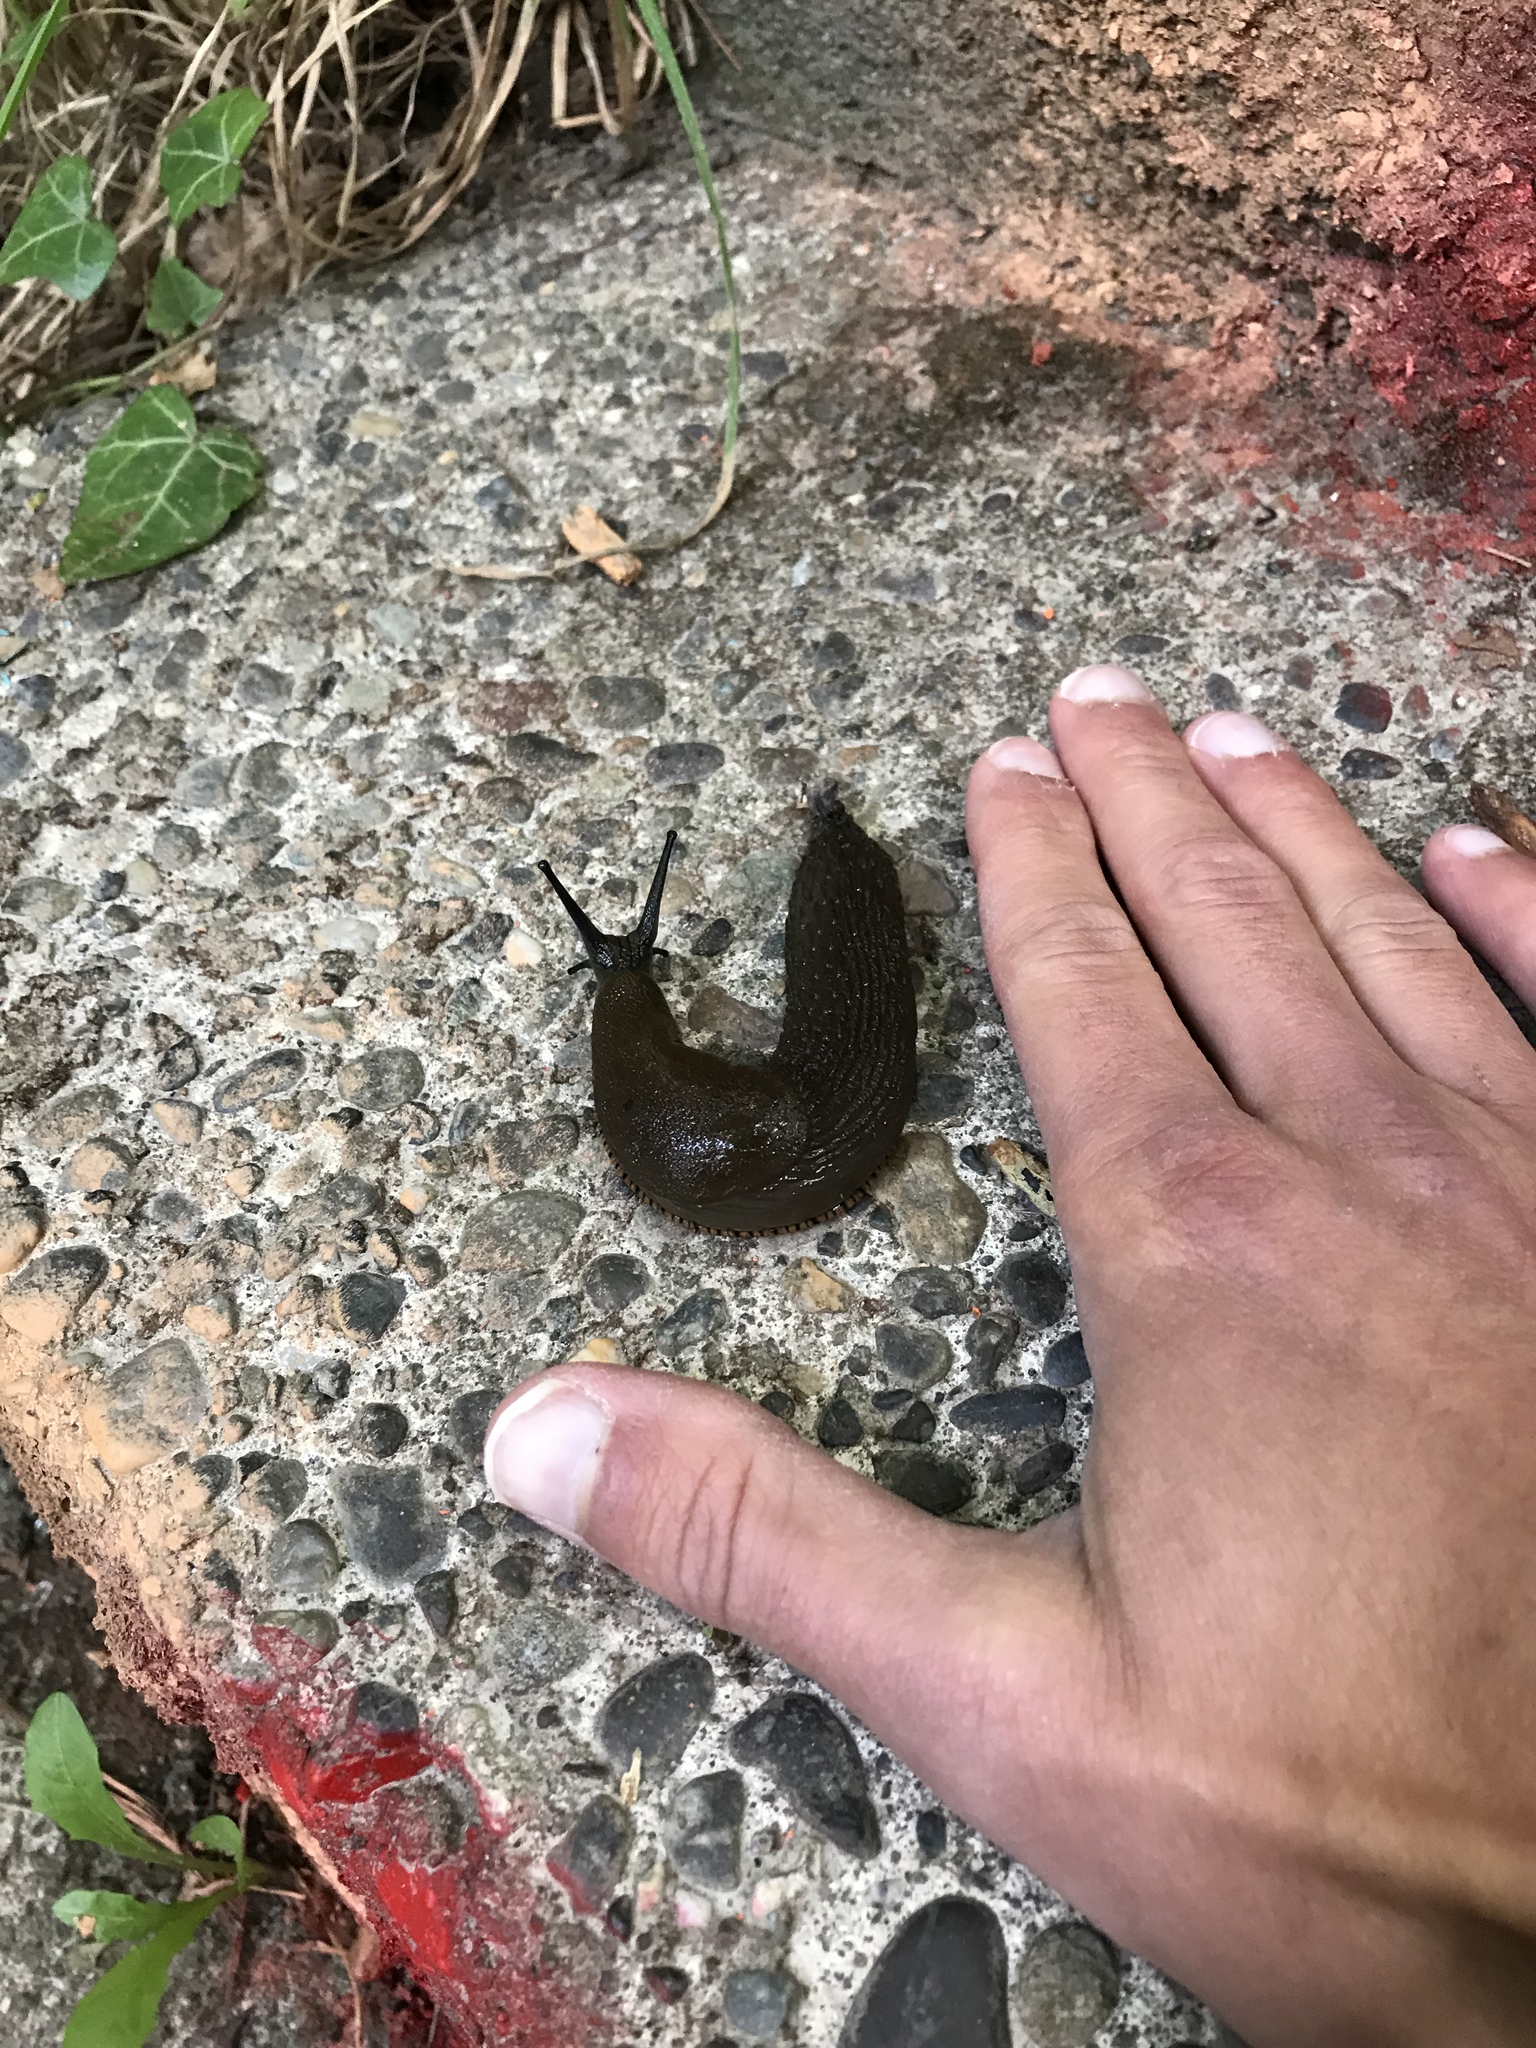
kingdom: Animalia
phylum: Mollusca
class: Gastropoda
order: Stylommatophora
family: Arionidae
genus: Arion
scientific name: Arion
